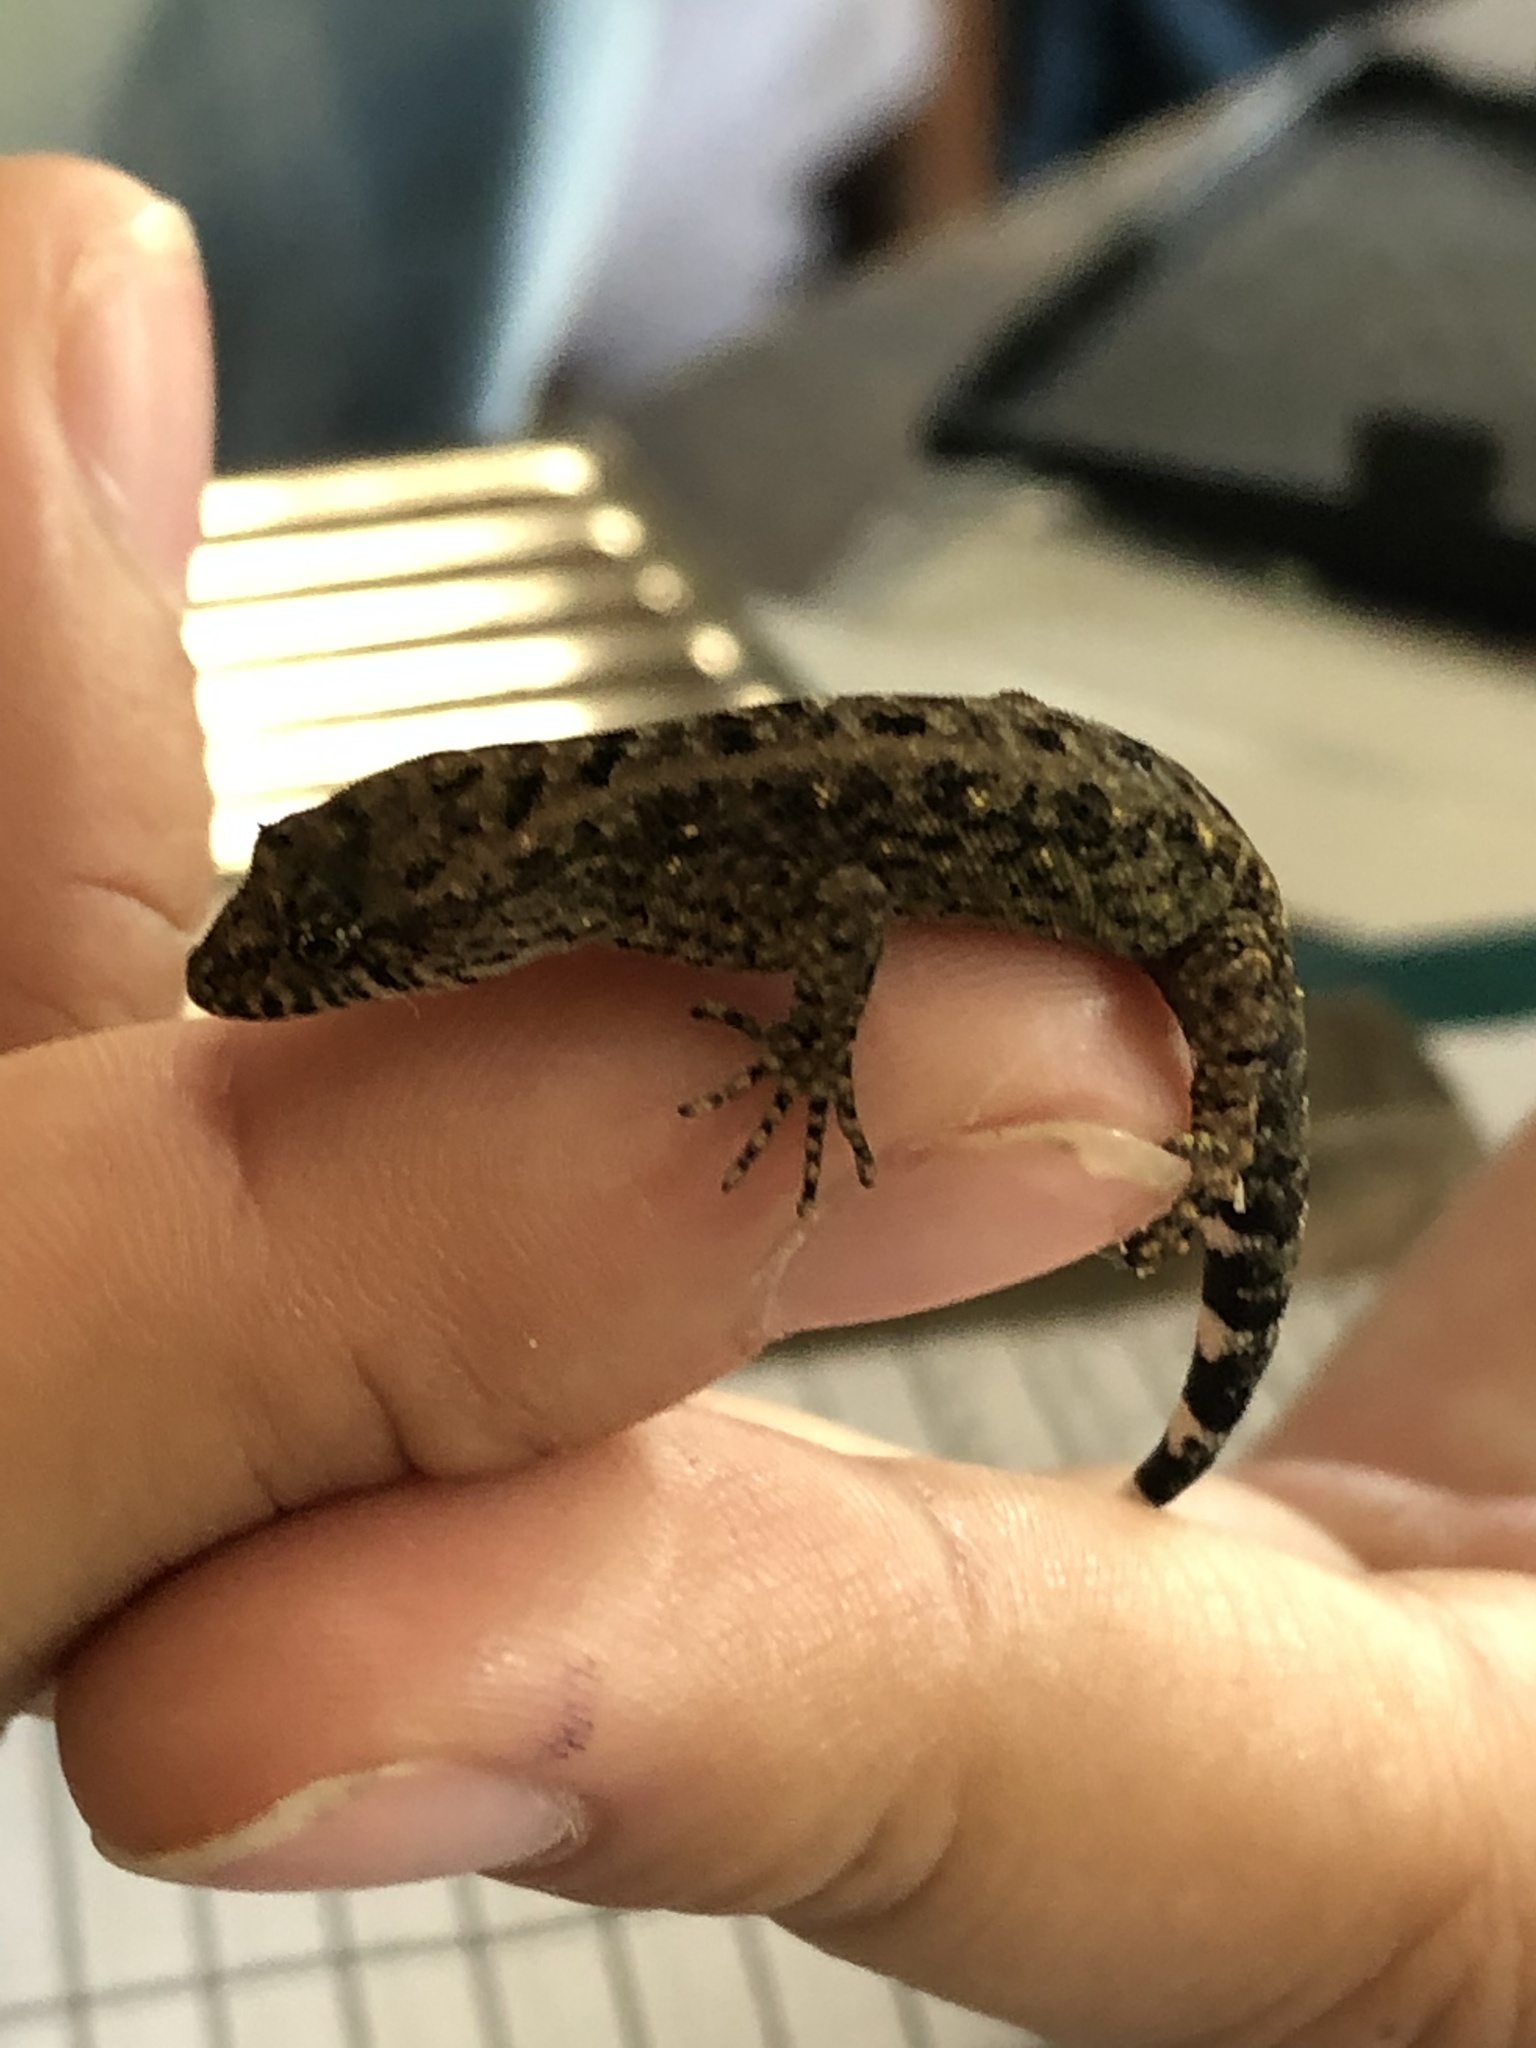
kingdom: Animalia
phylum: Chordata
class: Squamata
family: Sphaerodactylidae
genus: Gonatodes
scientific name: Gonatodes hasemani
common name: Haseman's gecko
